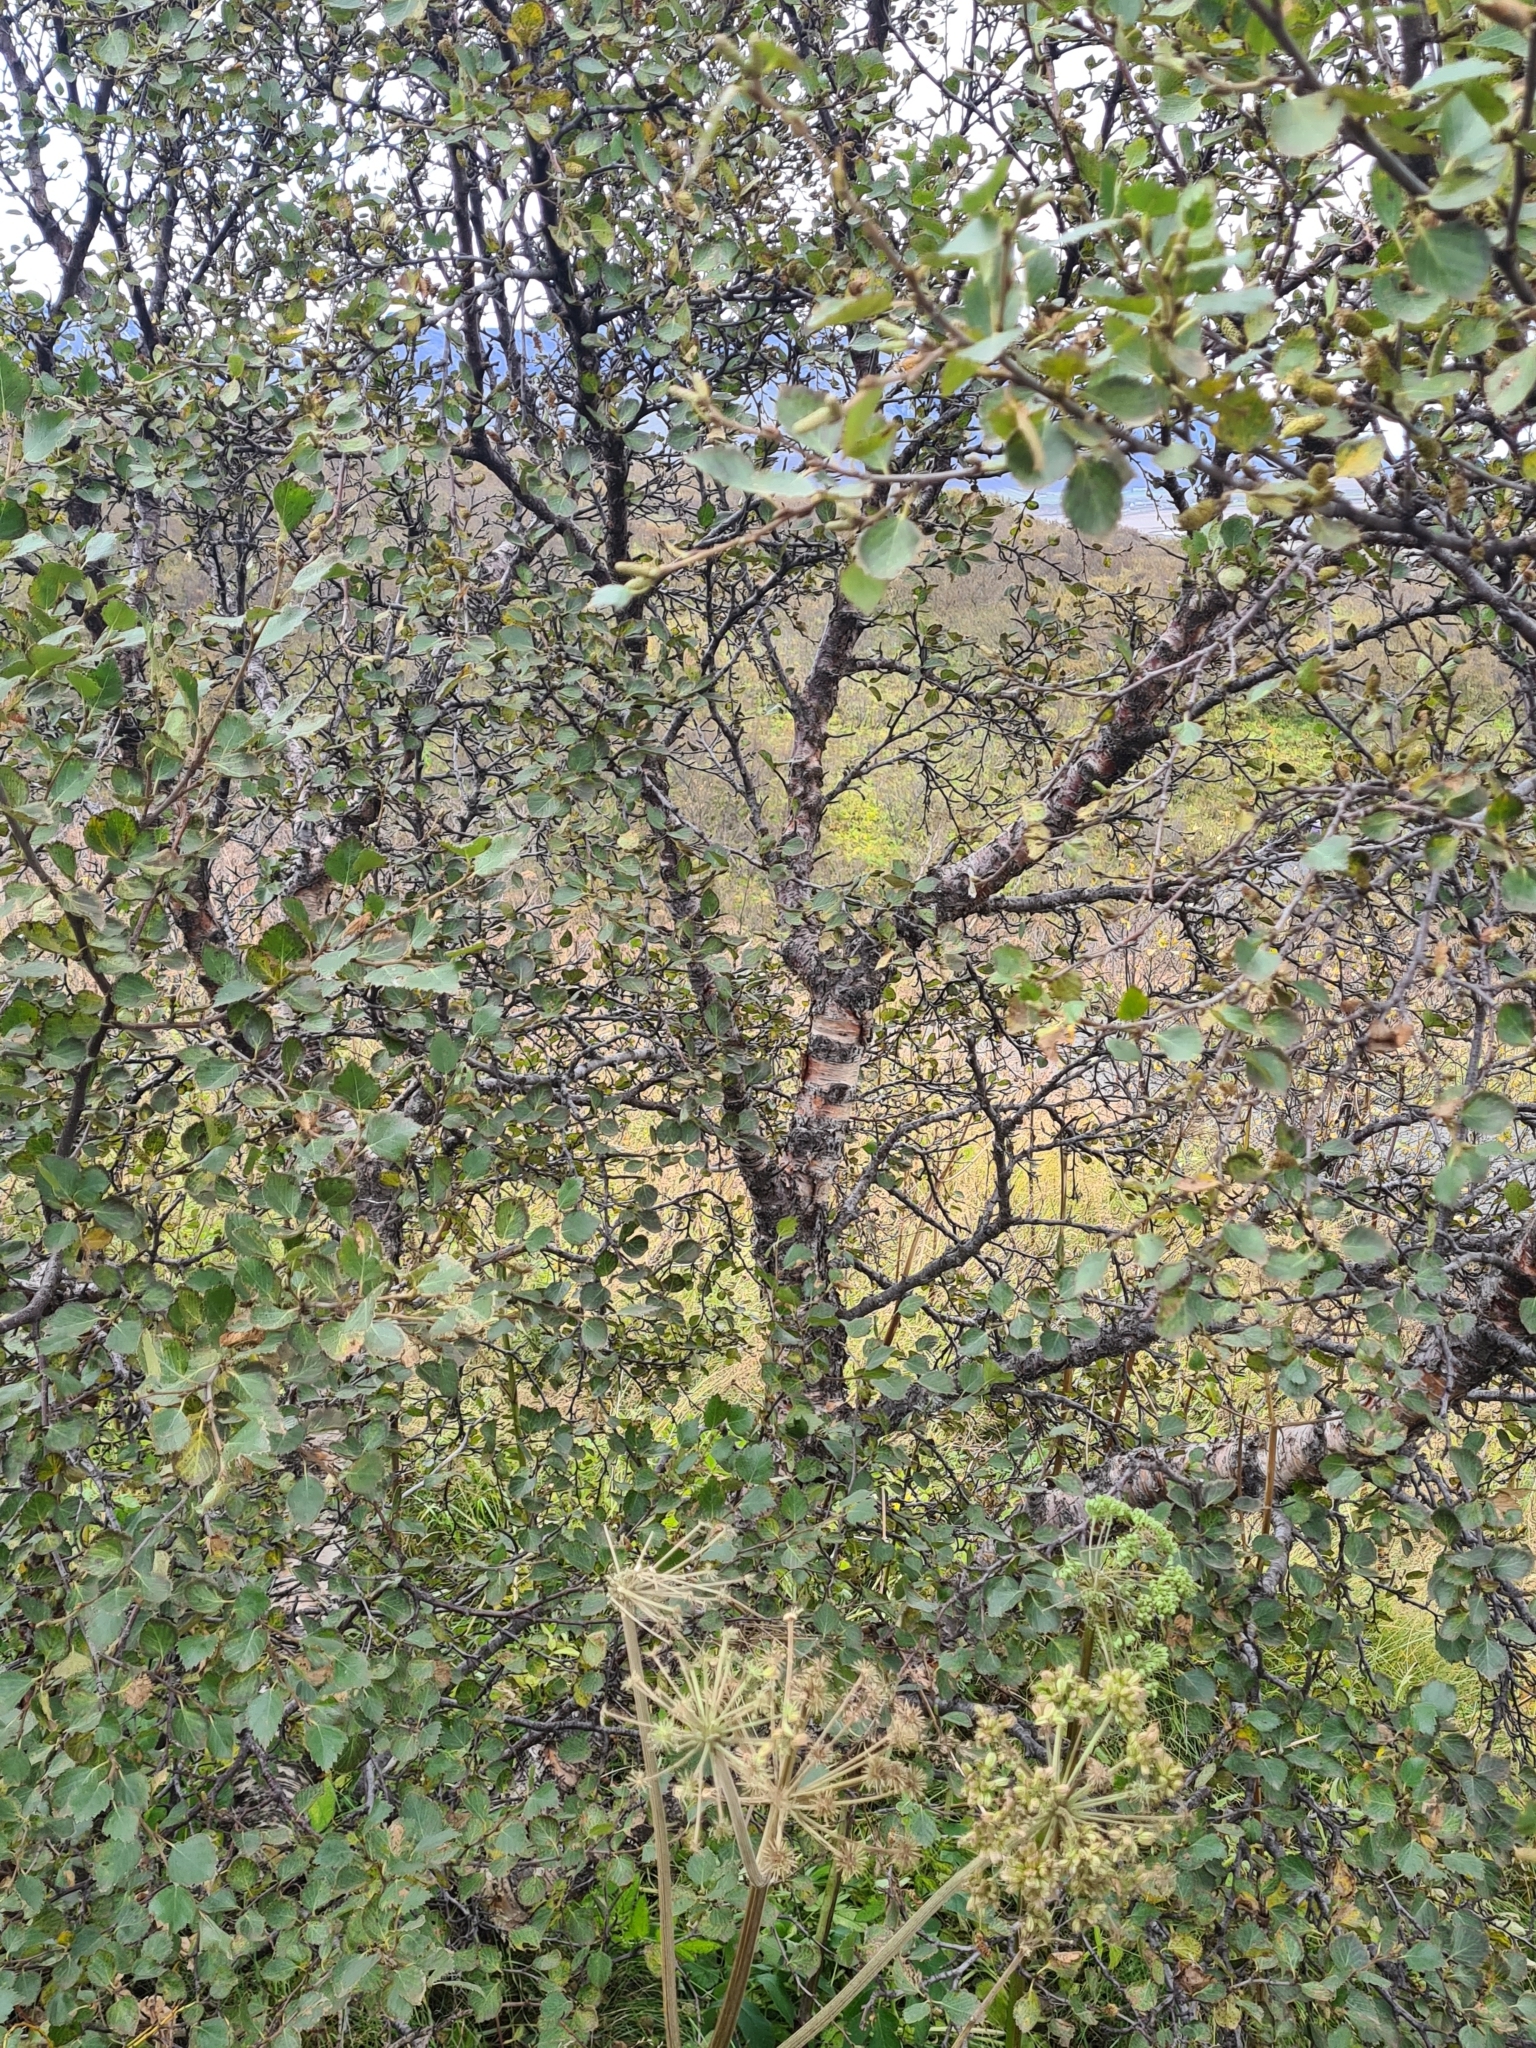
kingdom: Plantae
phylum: Tracheophyta
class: Magnoliopsida
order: Fagales
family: Betulaceae
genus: Betula
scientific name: Betula pubescens
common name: Downy birch
